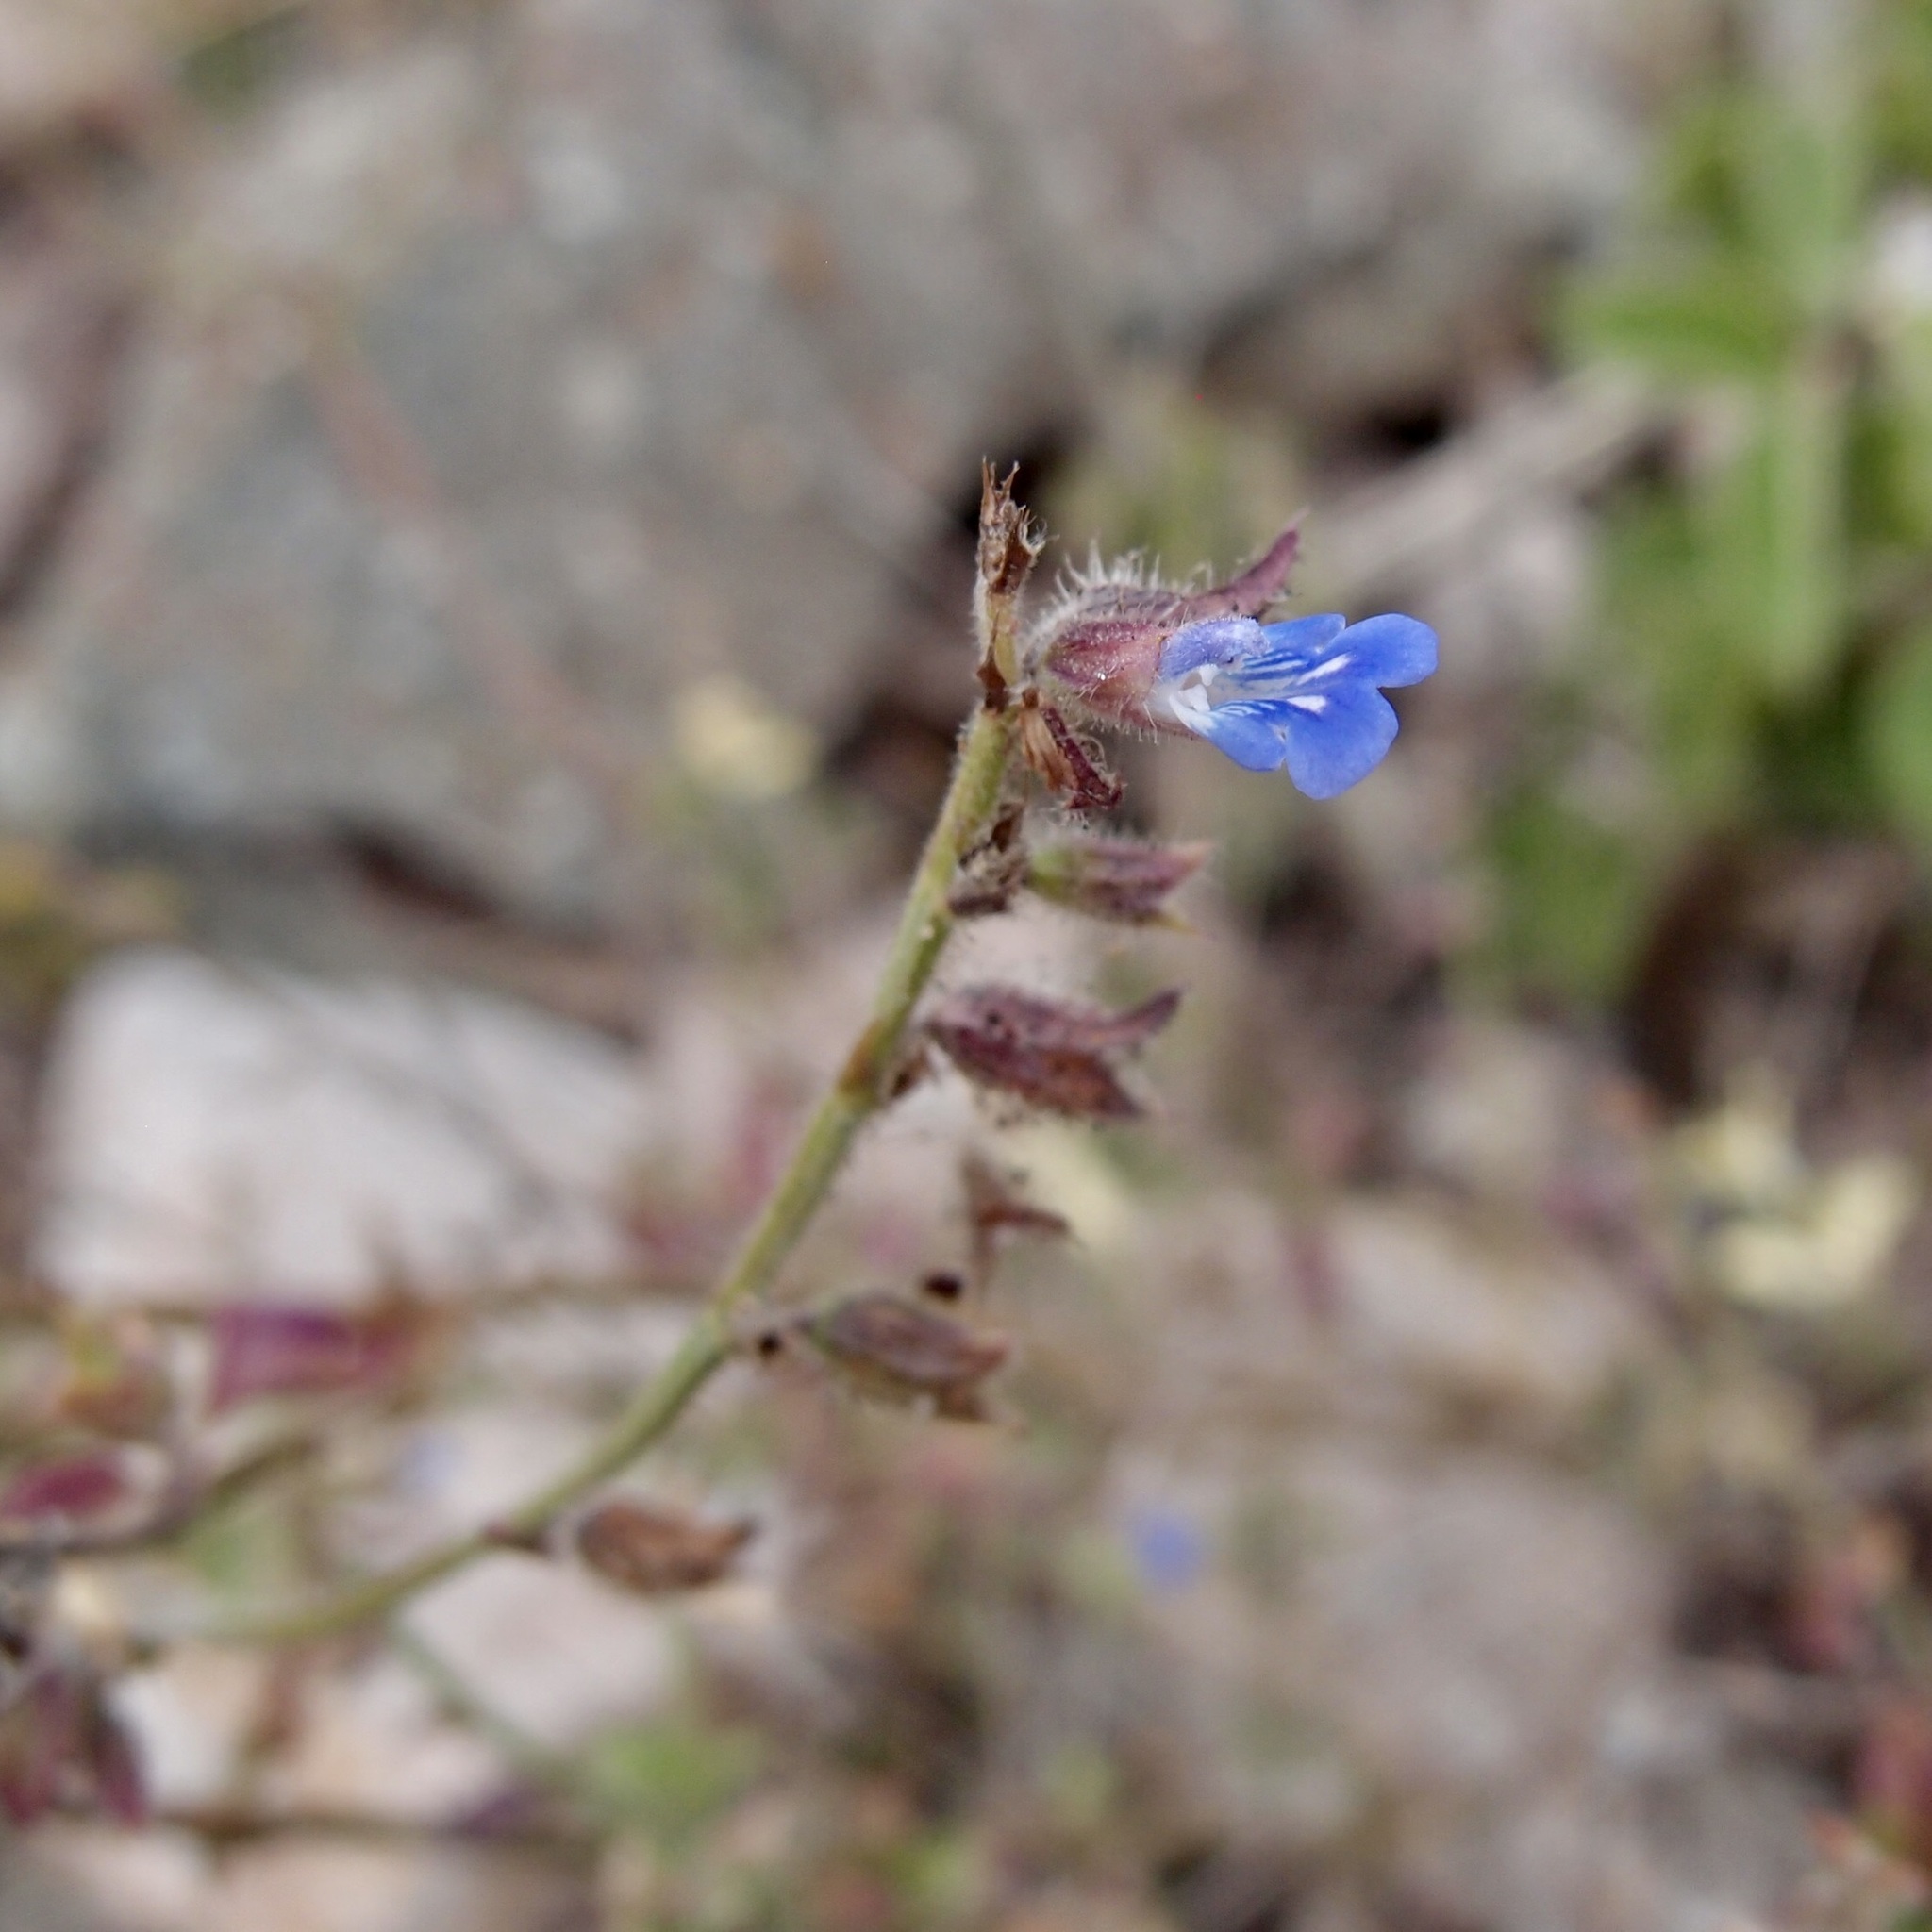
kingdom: Plantae
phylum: Tracheophyta
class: Magnoliopsida
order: Lamiales
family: Lamiaceae
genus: Salvia
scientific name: Salvia misella
